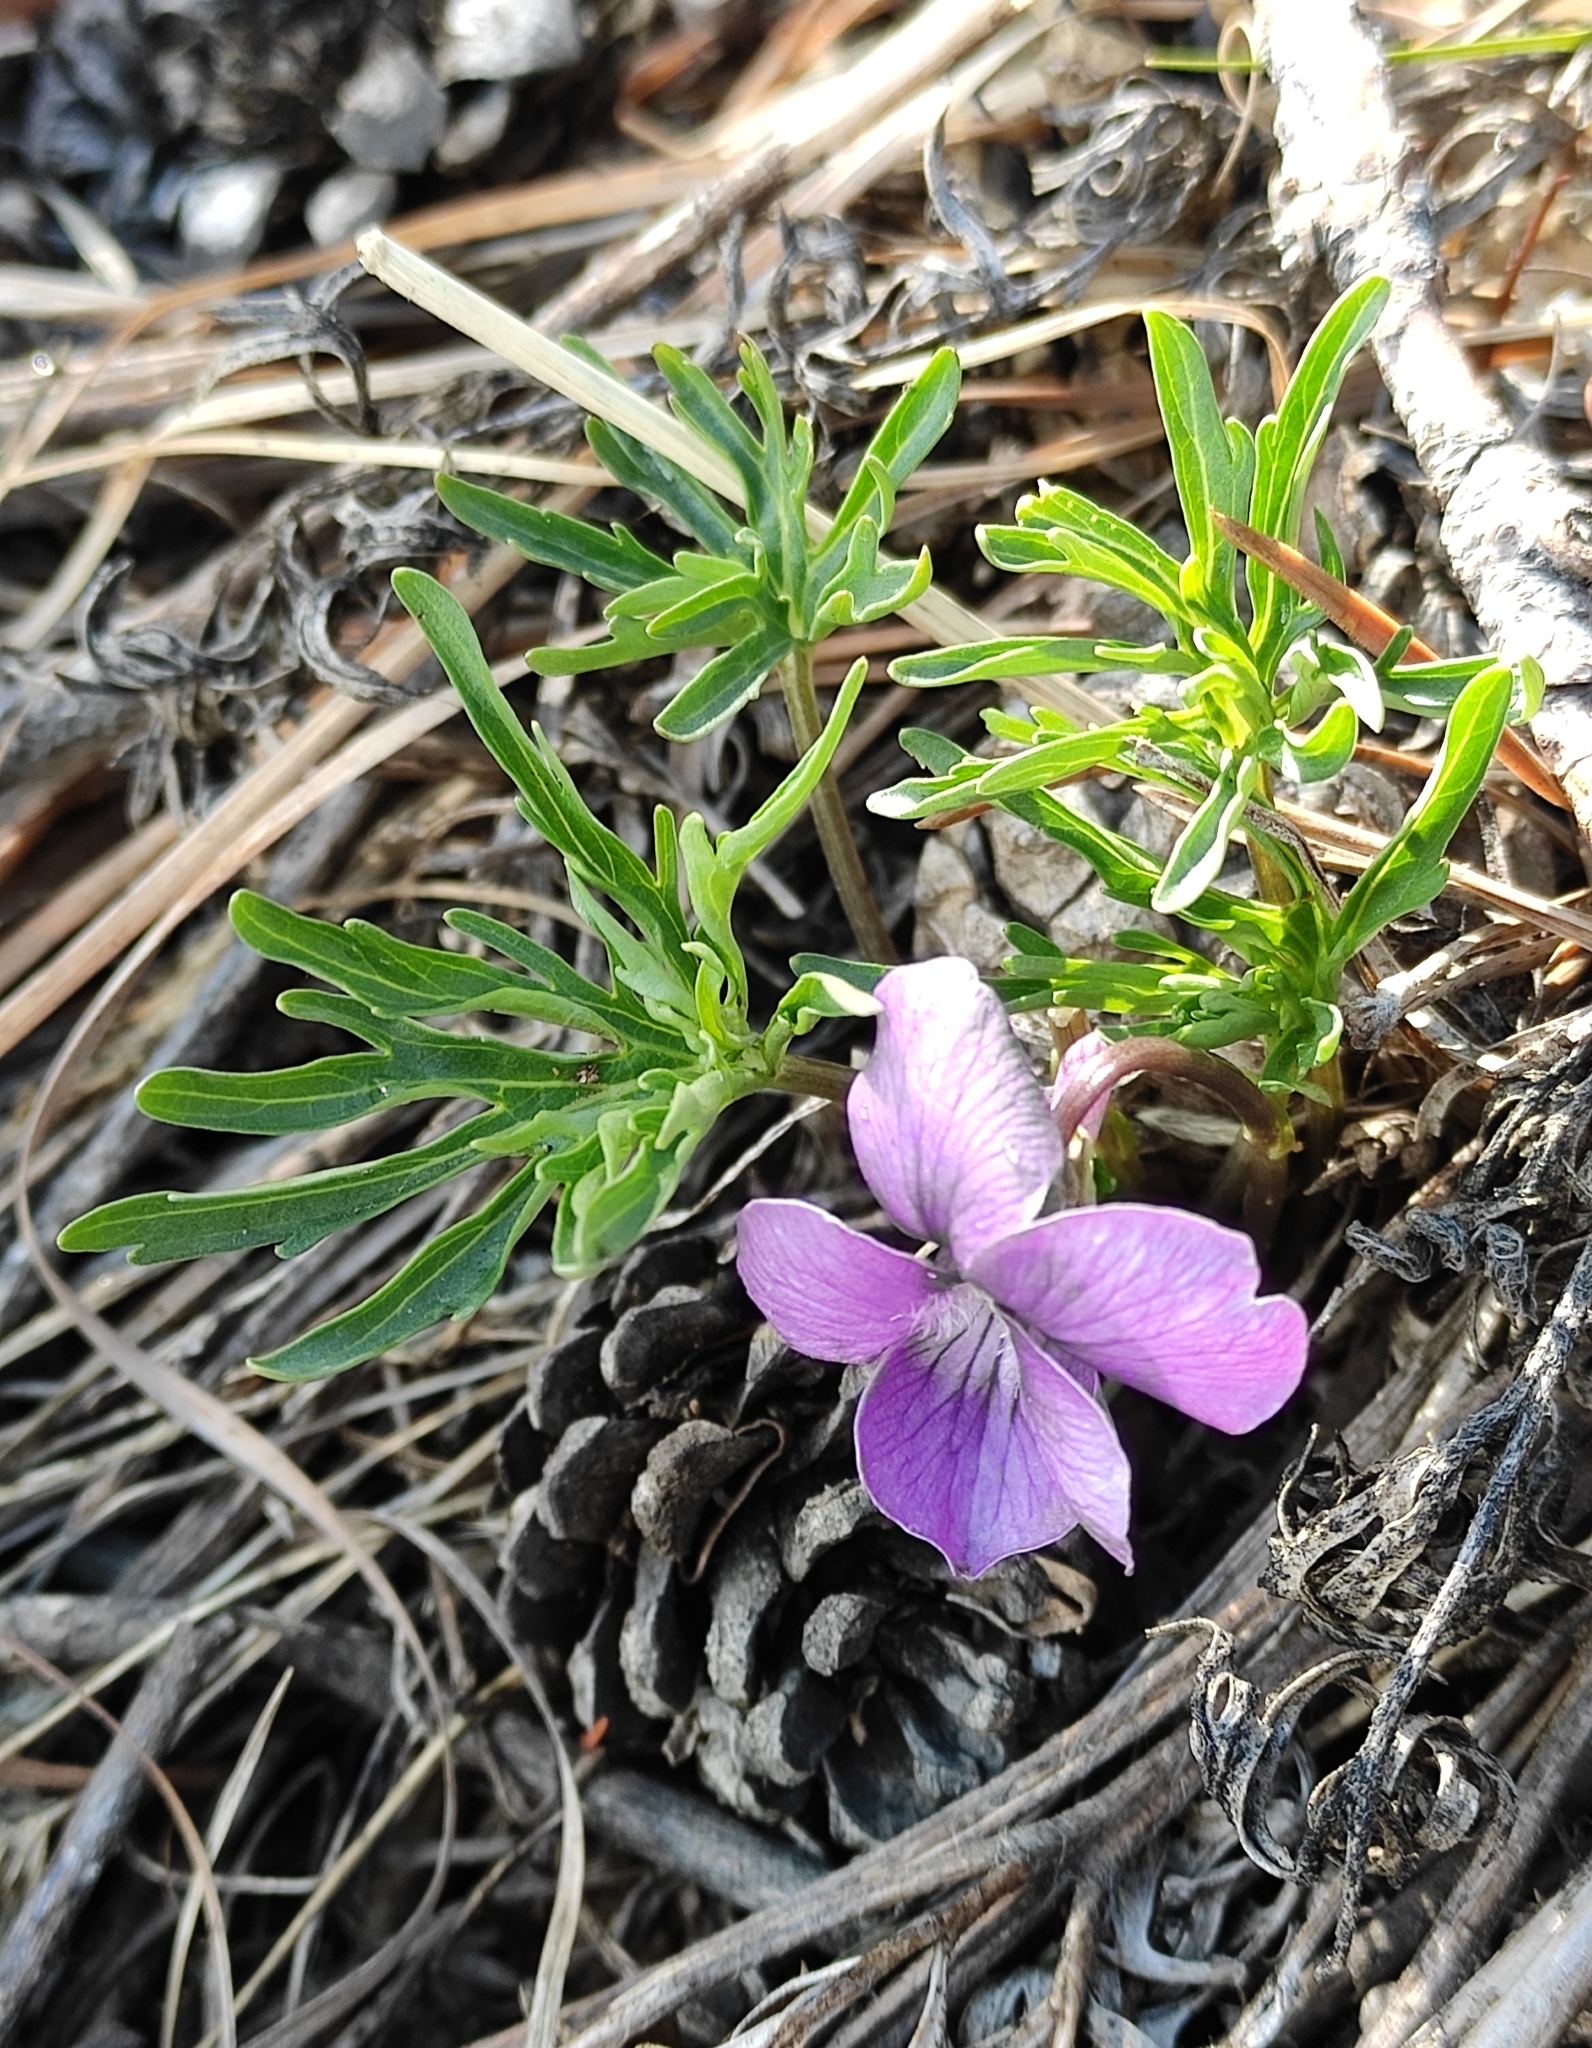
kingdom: Plantae
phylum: Tracheophyta
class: Magnoliopsida
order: Malpighiales
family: Violaceae
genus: Viola
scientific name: Viola multifida
